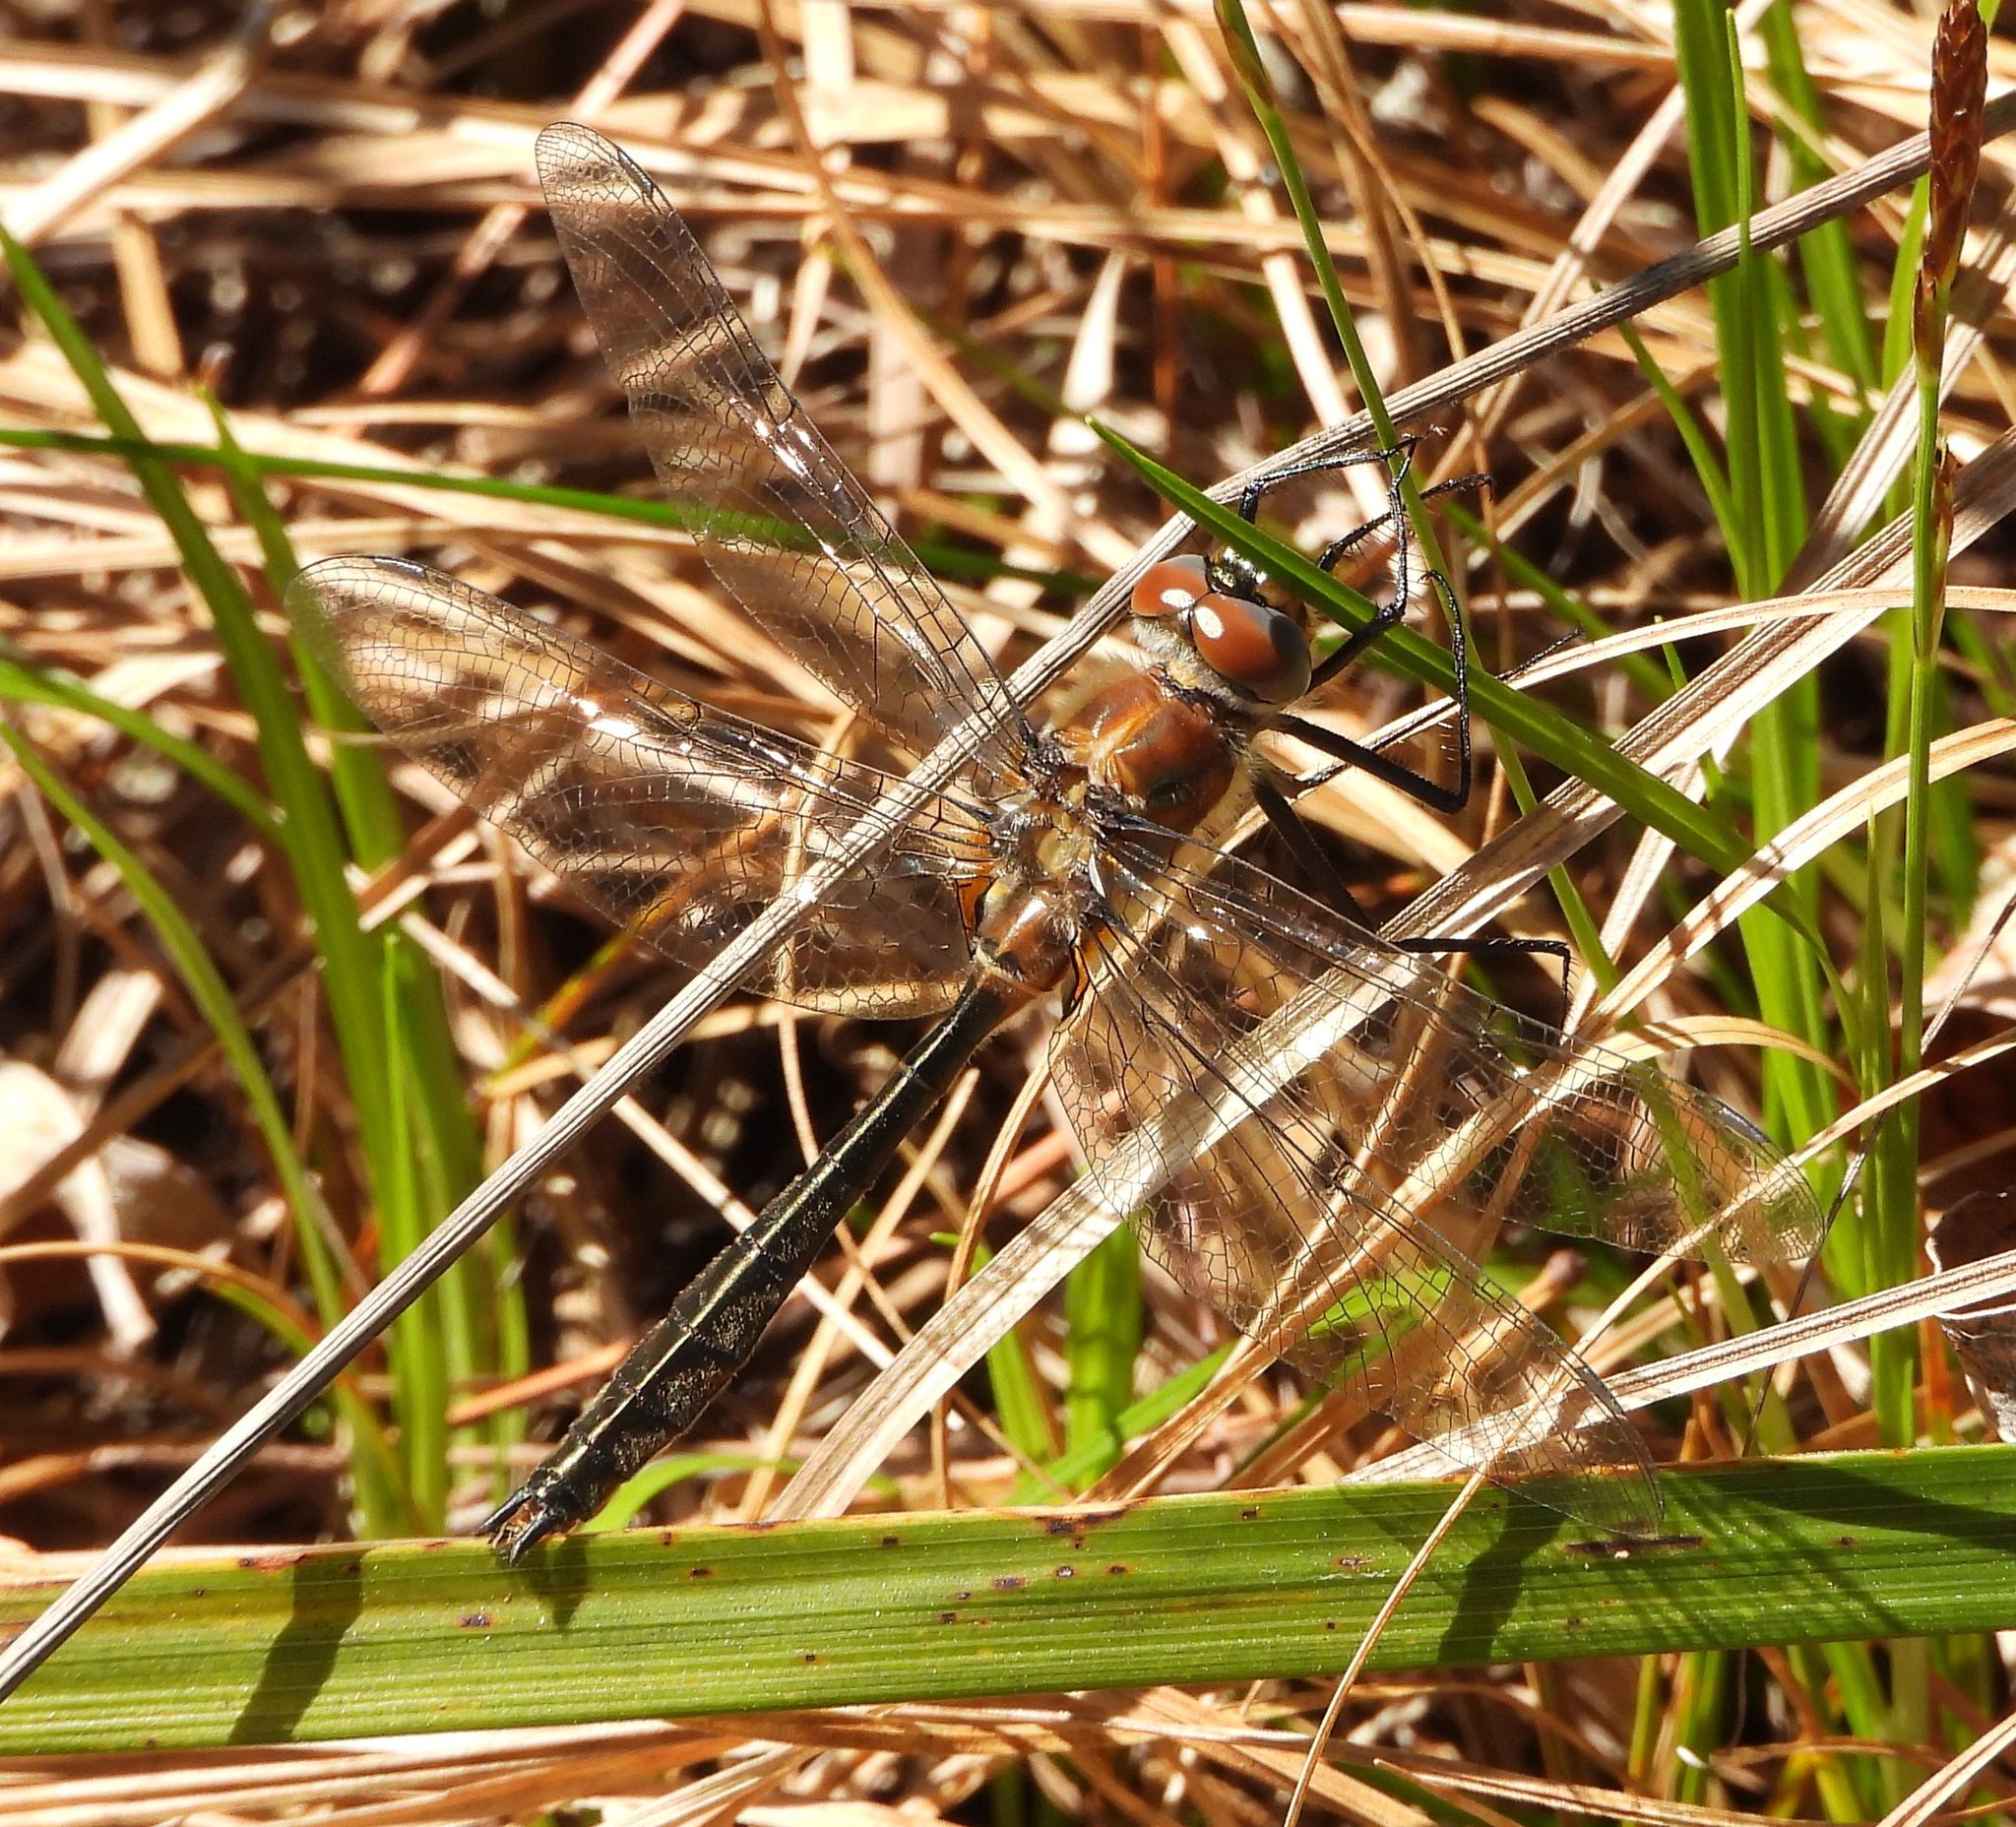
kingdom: Animalia
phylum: Arthropoda
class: Insecta
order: Odonata
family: Corduliidae
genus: Cordulia
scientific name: Cordulia shurtleffii
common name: American emerald
